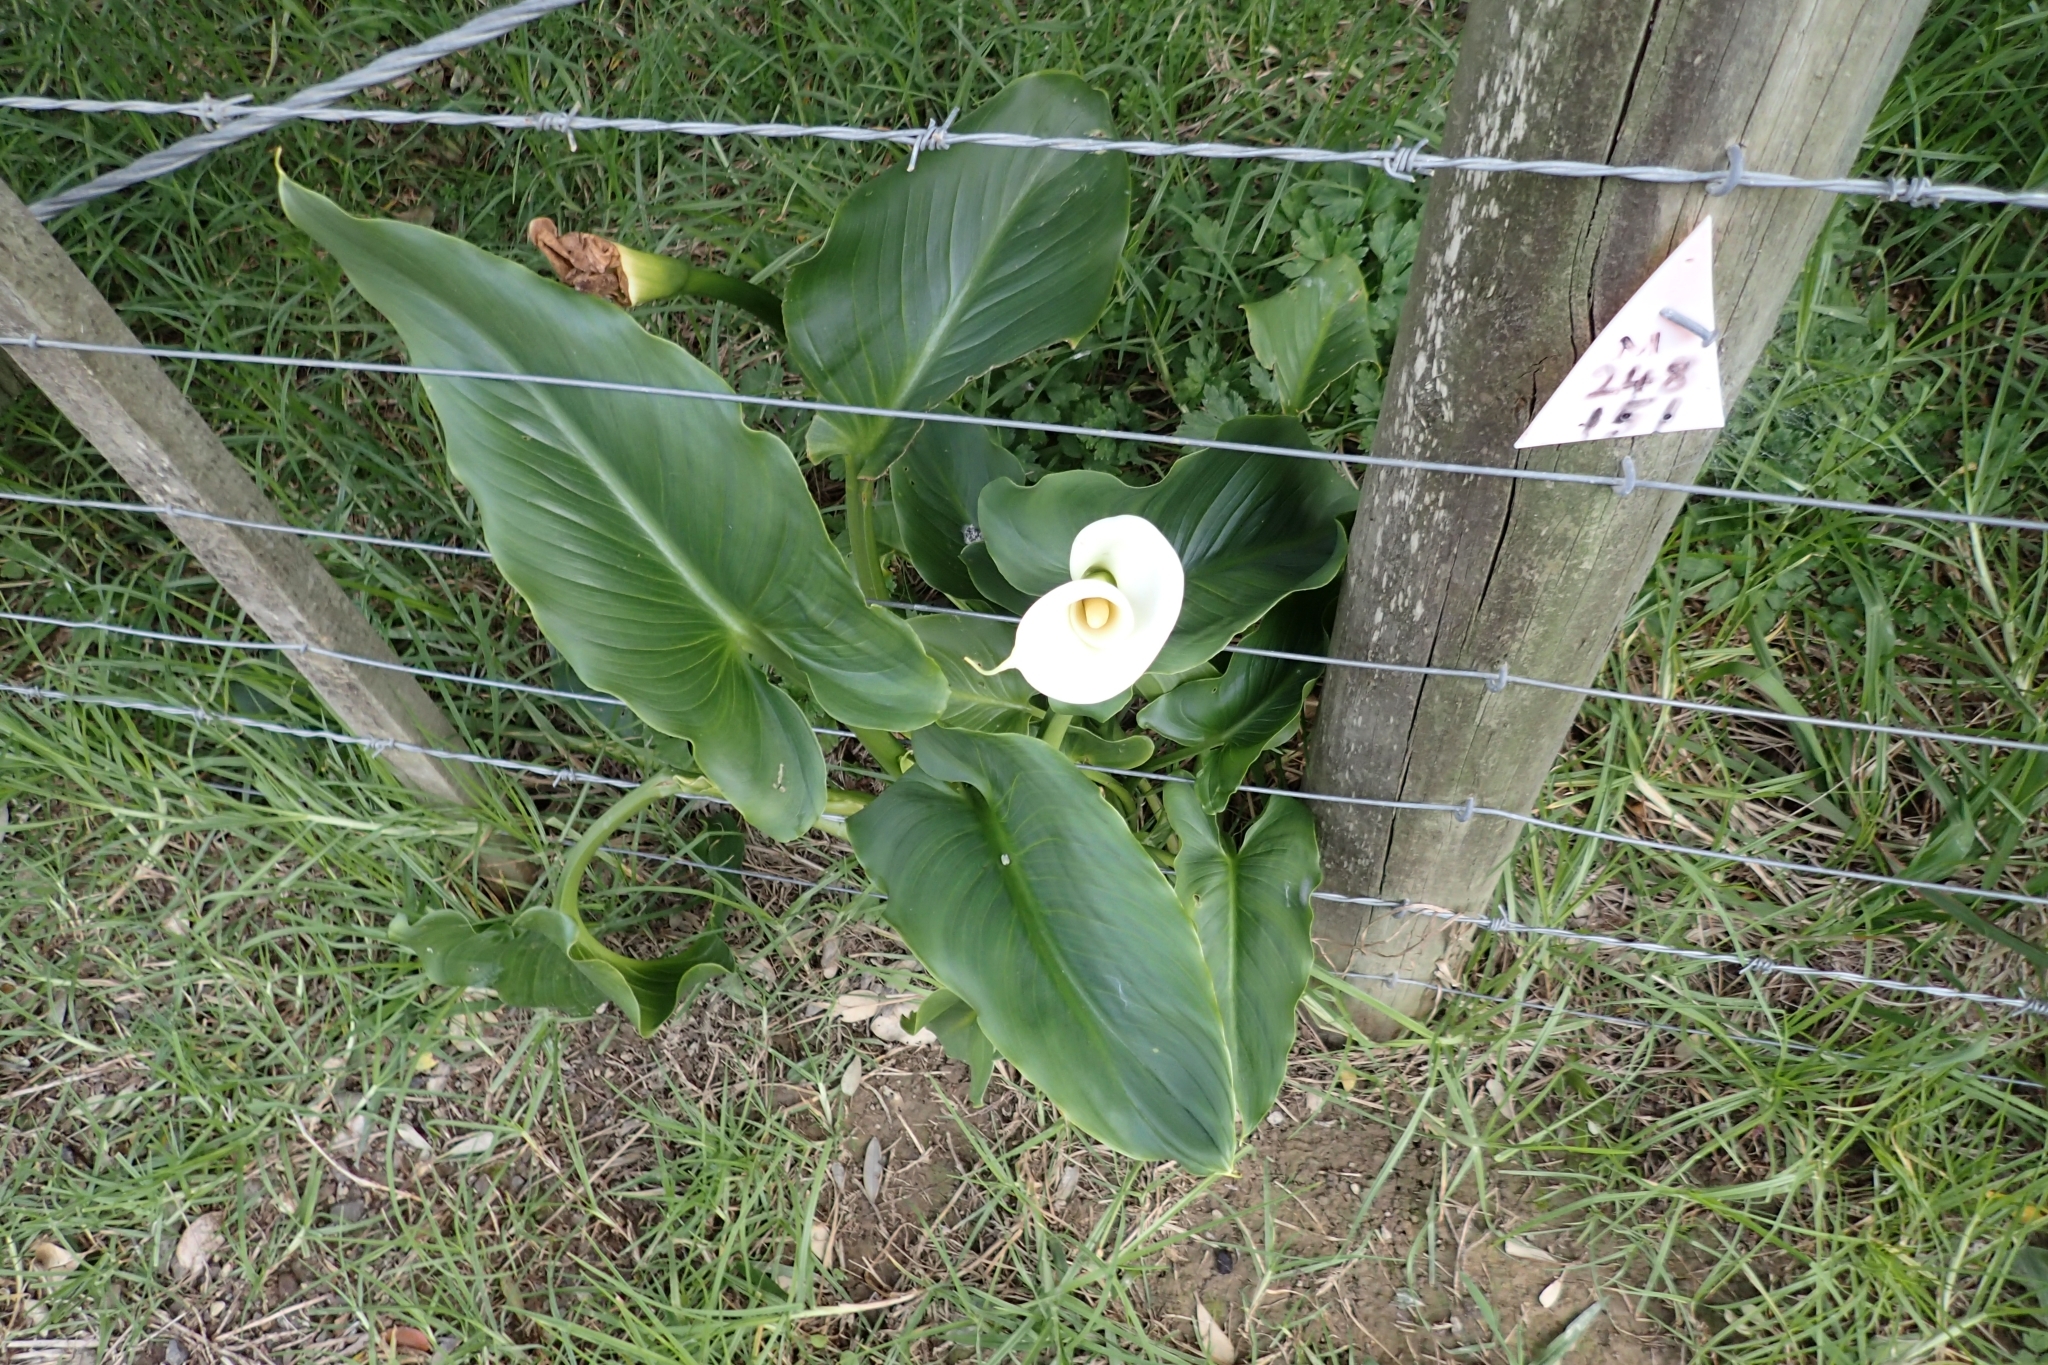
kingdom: Plantae
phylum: Tracheophyta
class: Liliopsida
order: Alismatales
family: Araceae
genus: Zantedeschia
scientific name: Zantedeschia aethiopica
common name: Altar-lily
